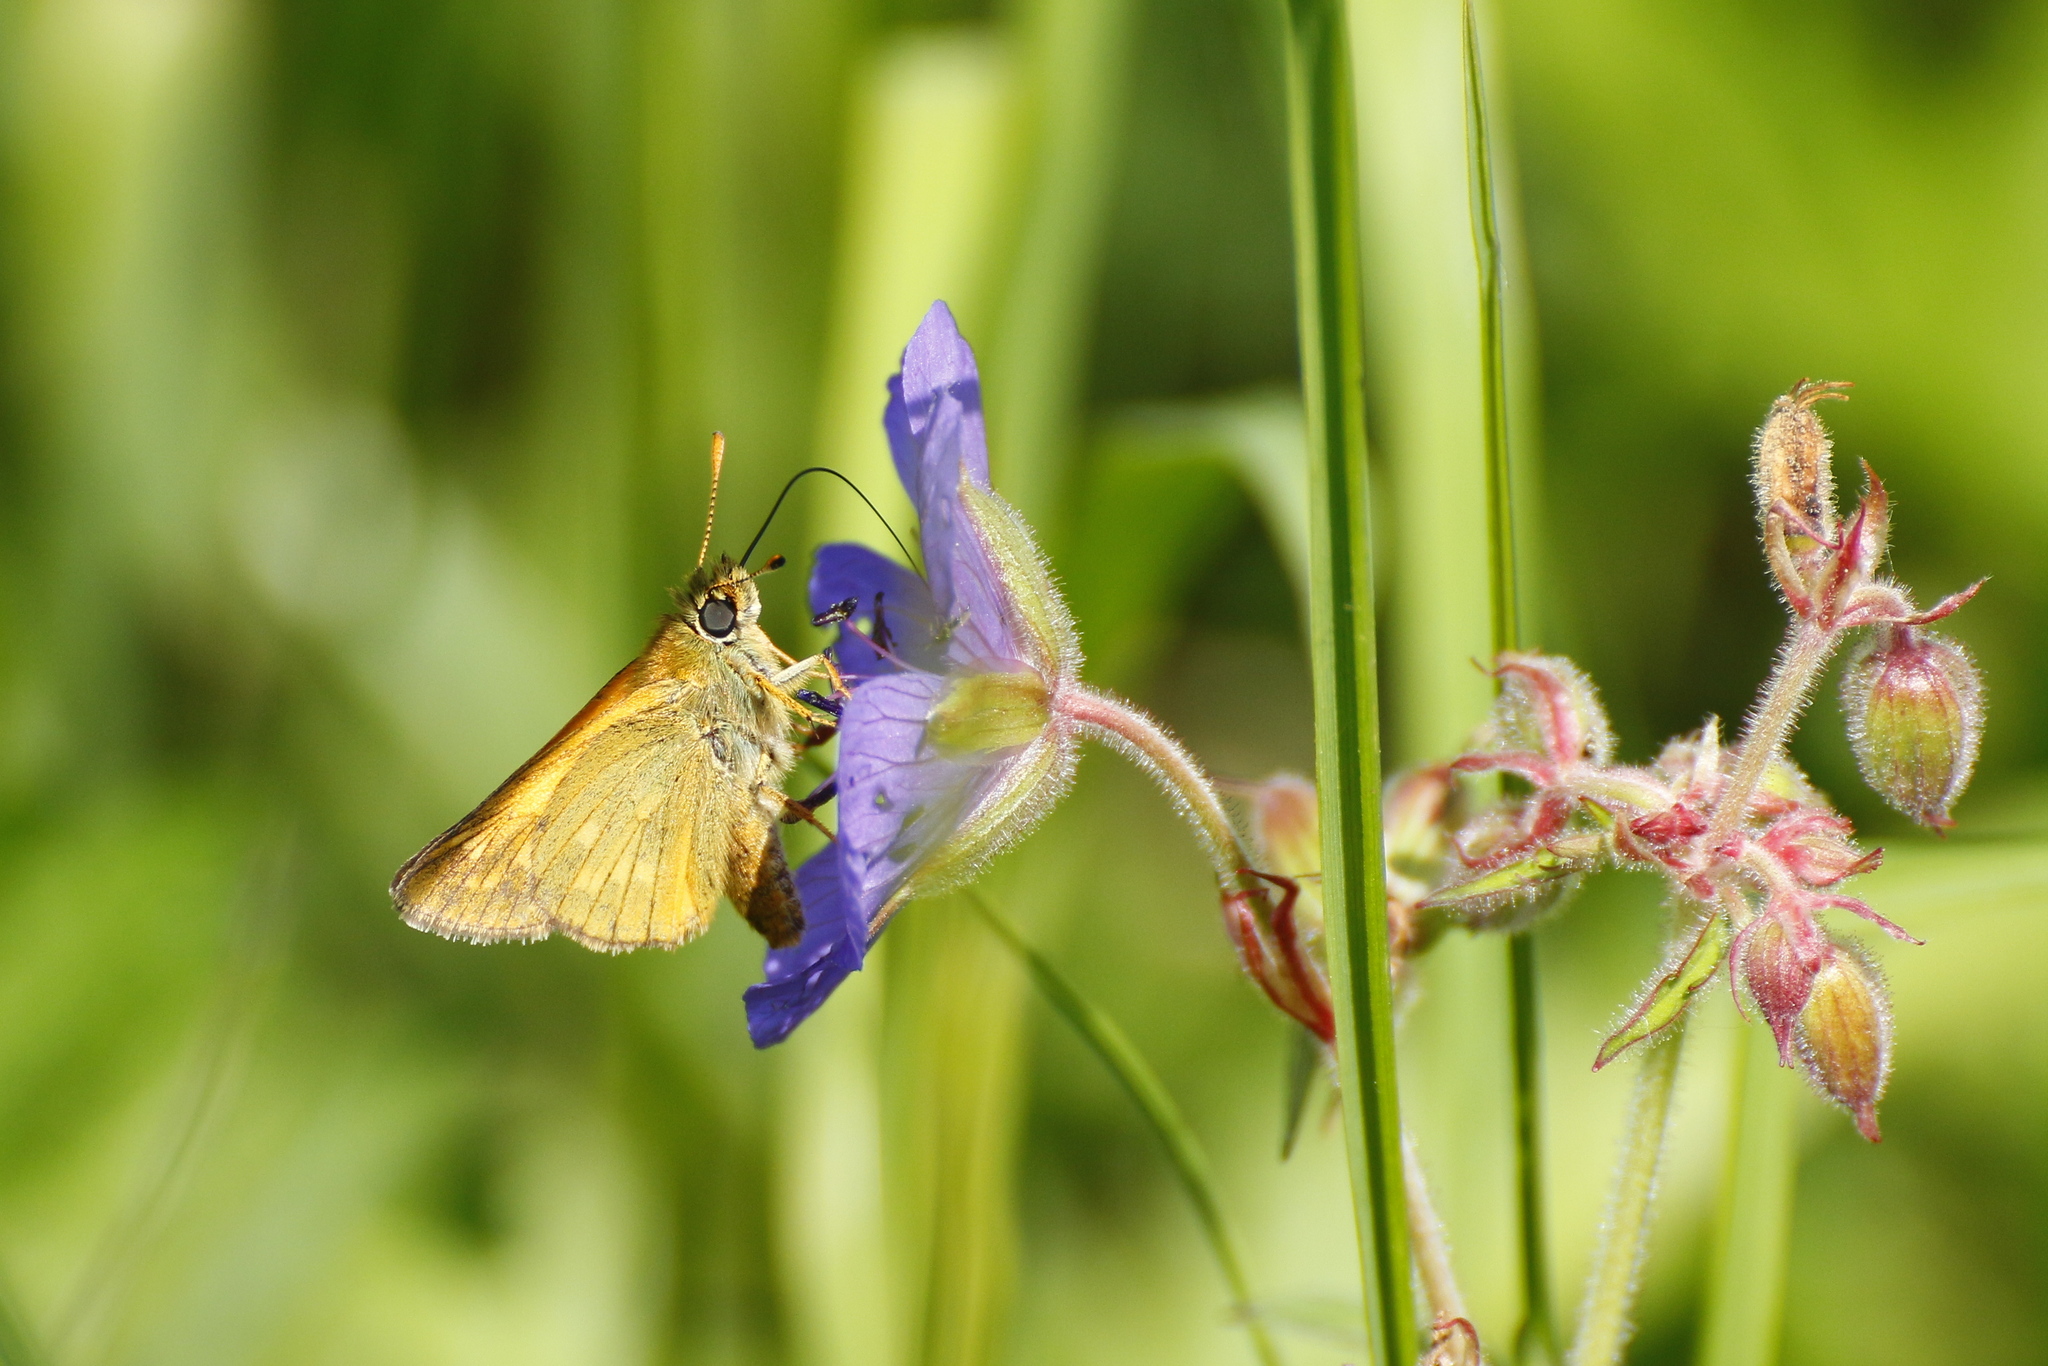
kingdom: Animalia
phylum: Arthropoda
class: Insecta
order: Lepidoptera
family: Hesperiidae
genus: Ochlodes
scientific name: Ochlodes venata
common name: Large skipper
